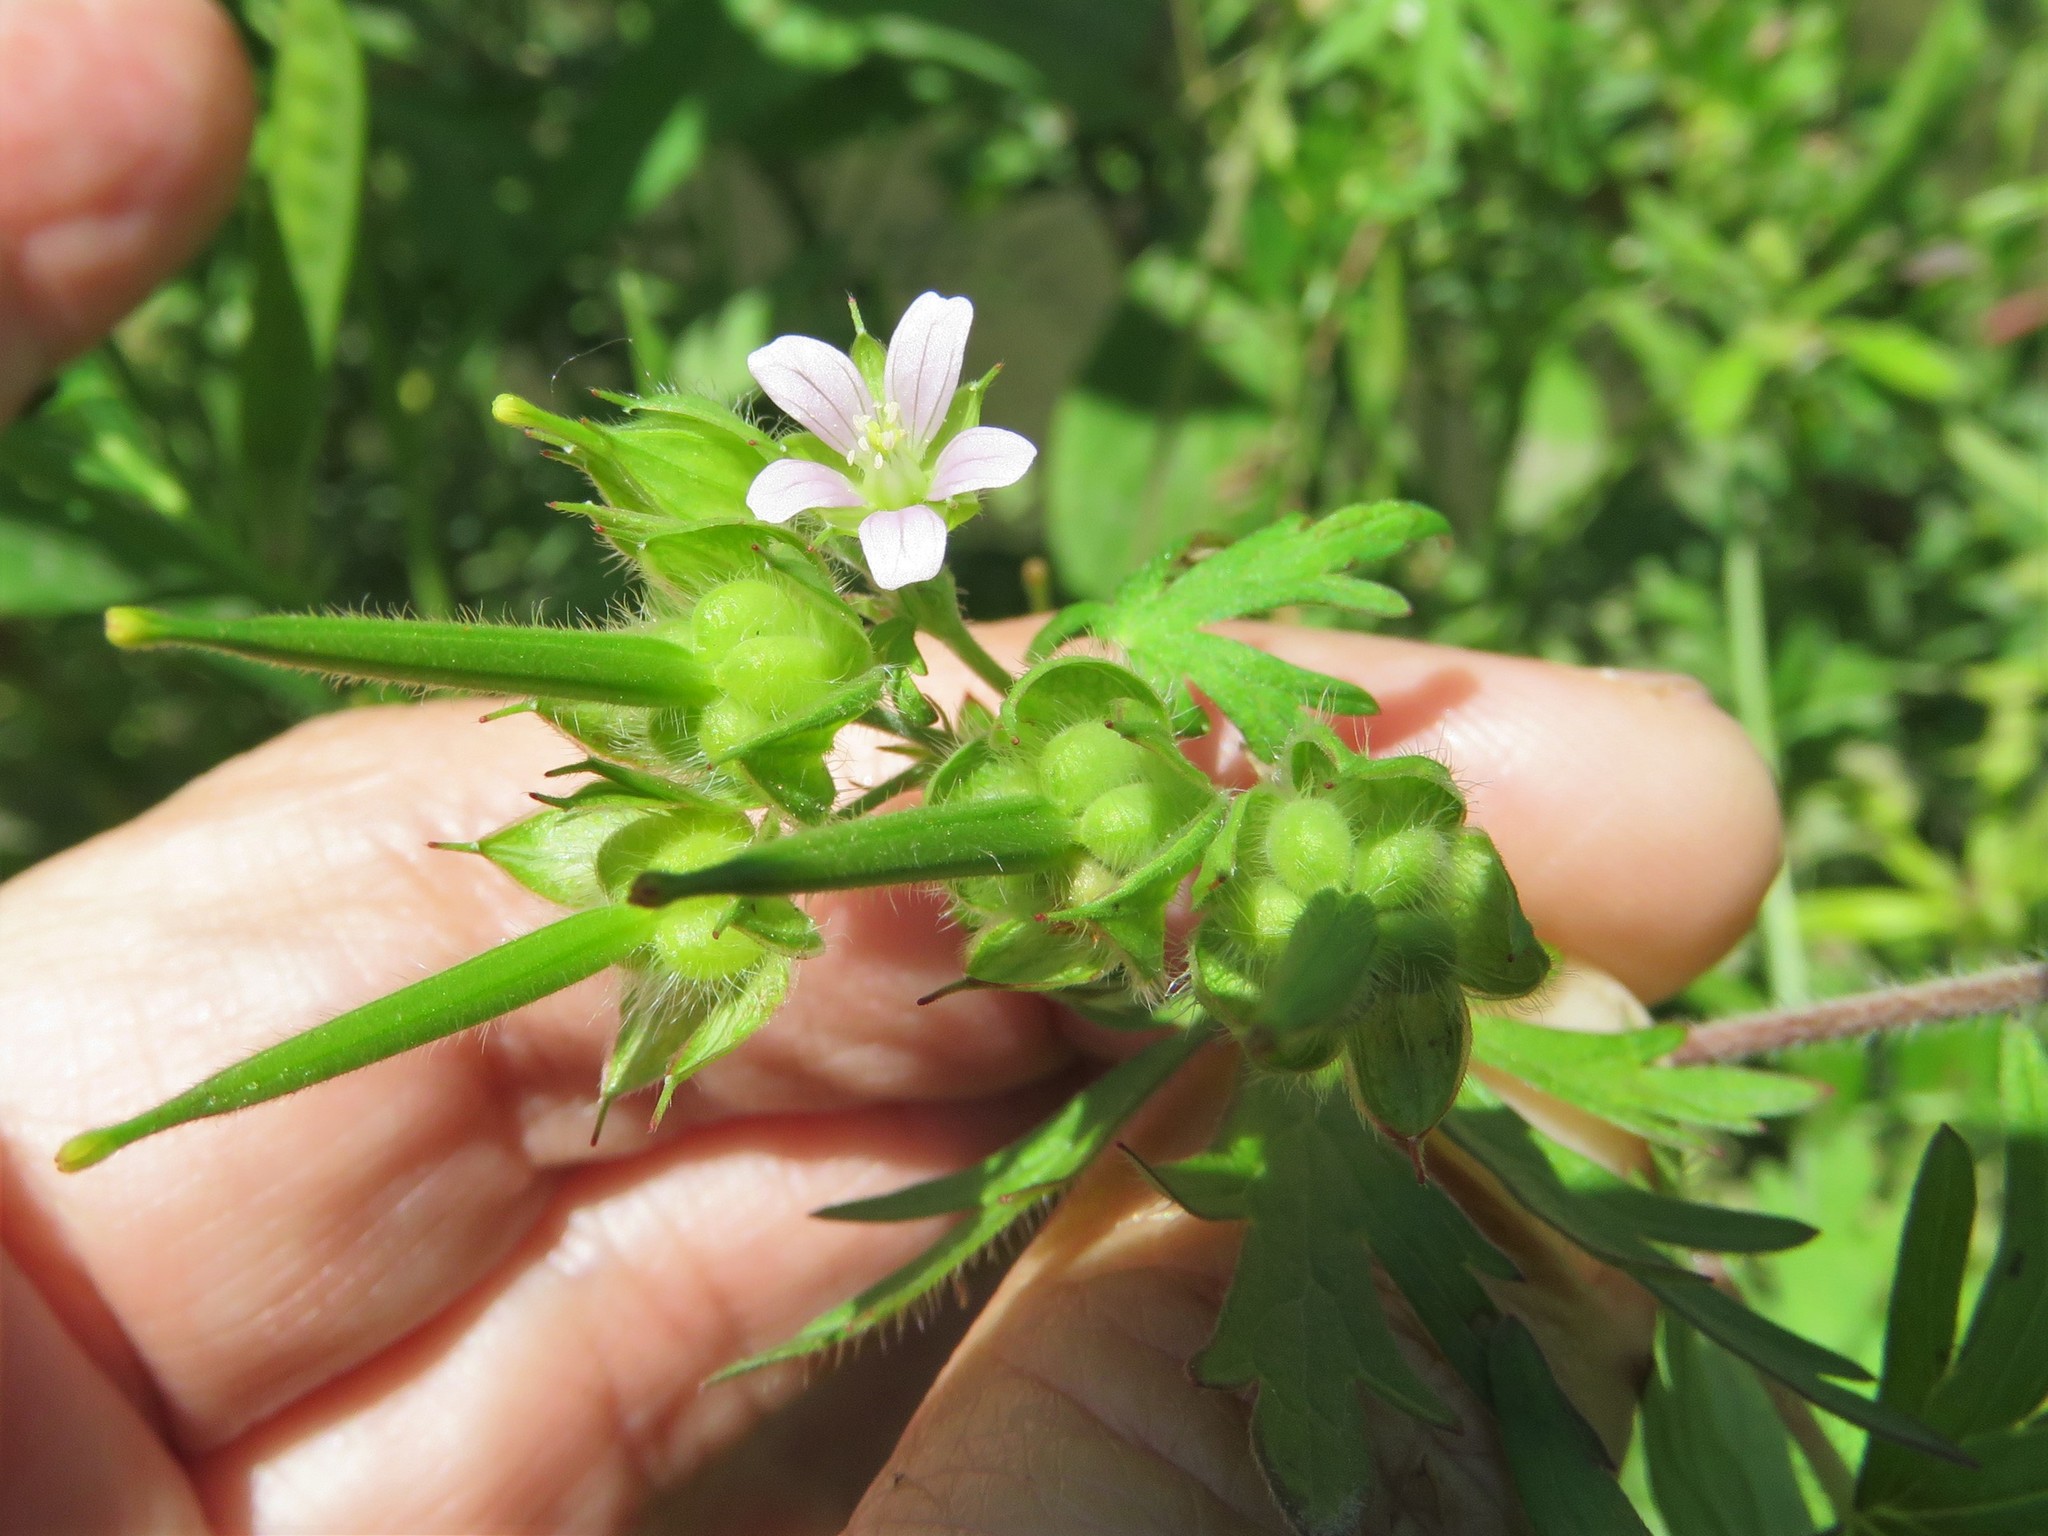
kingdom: Plantae
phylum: Tracheophyta
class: Magnoliopsida
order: Geraniales
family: Geraniaceae
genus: Geranium
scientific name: Geranium carolinianum
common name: Carolina crane's-bill
